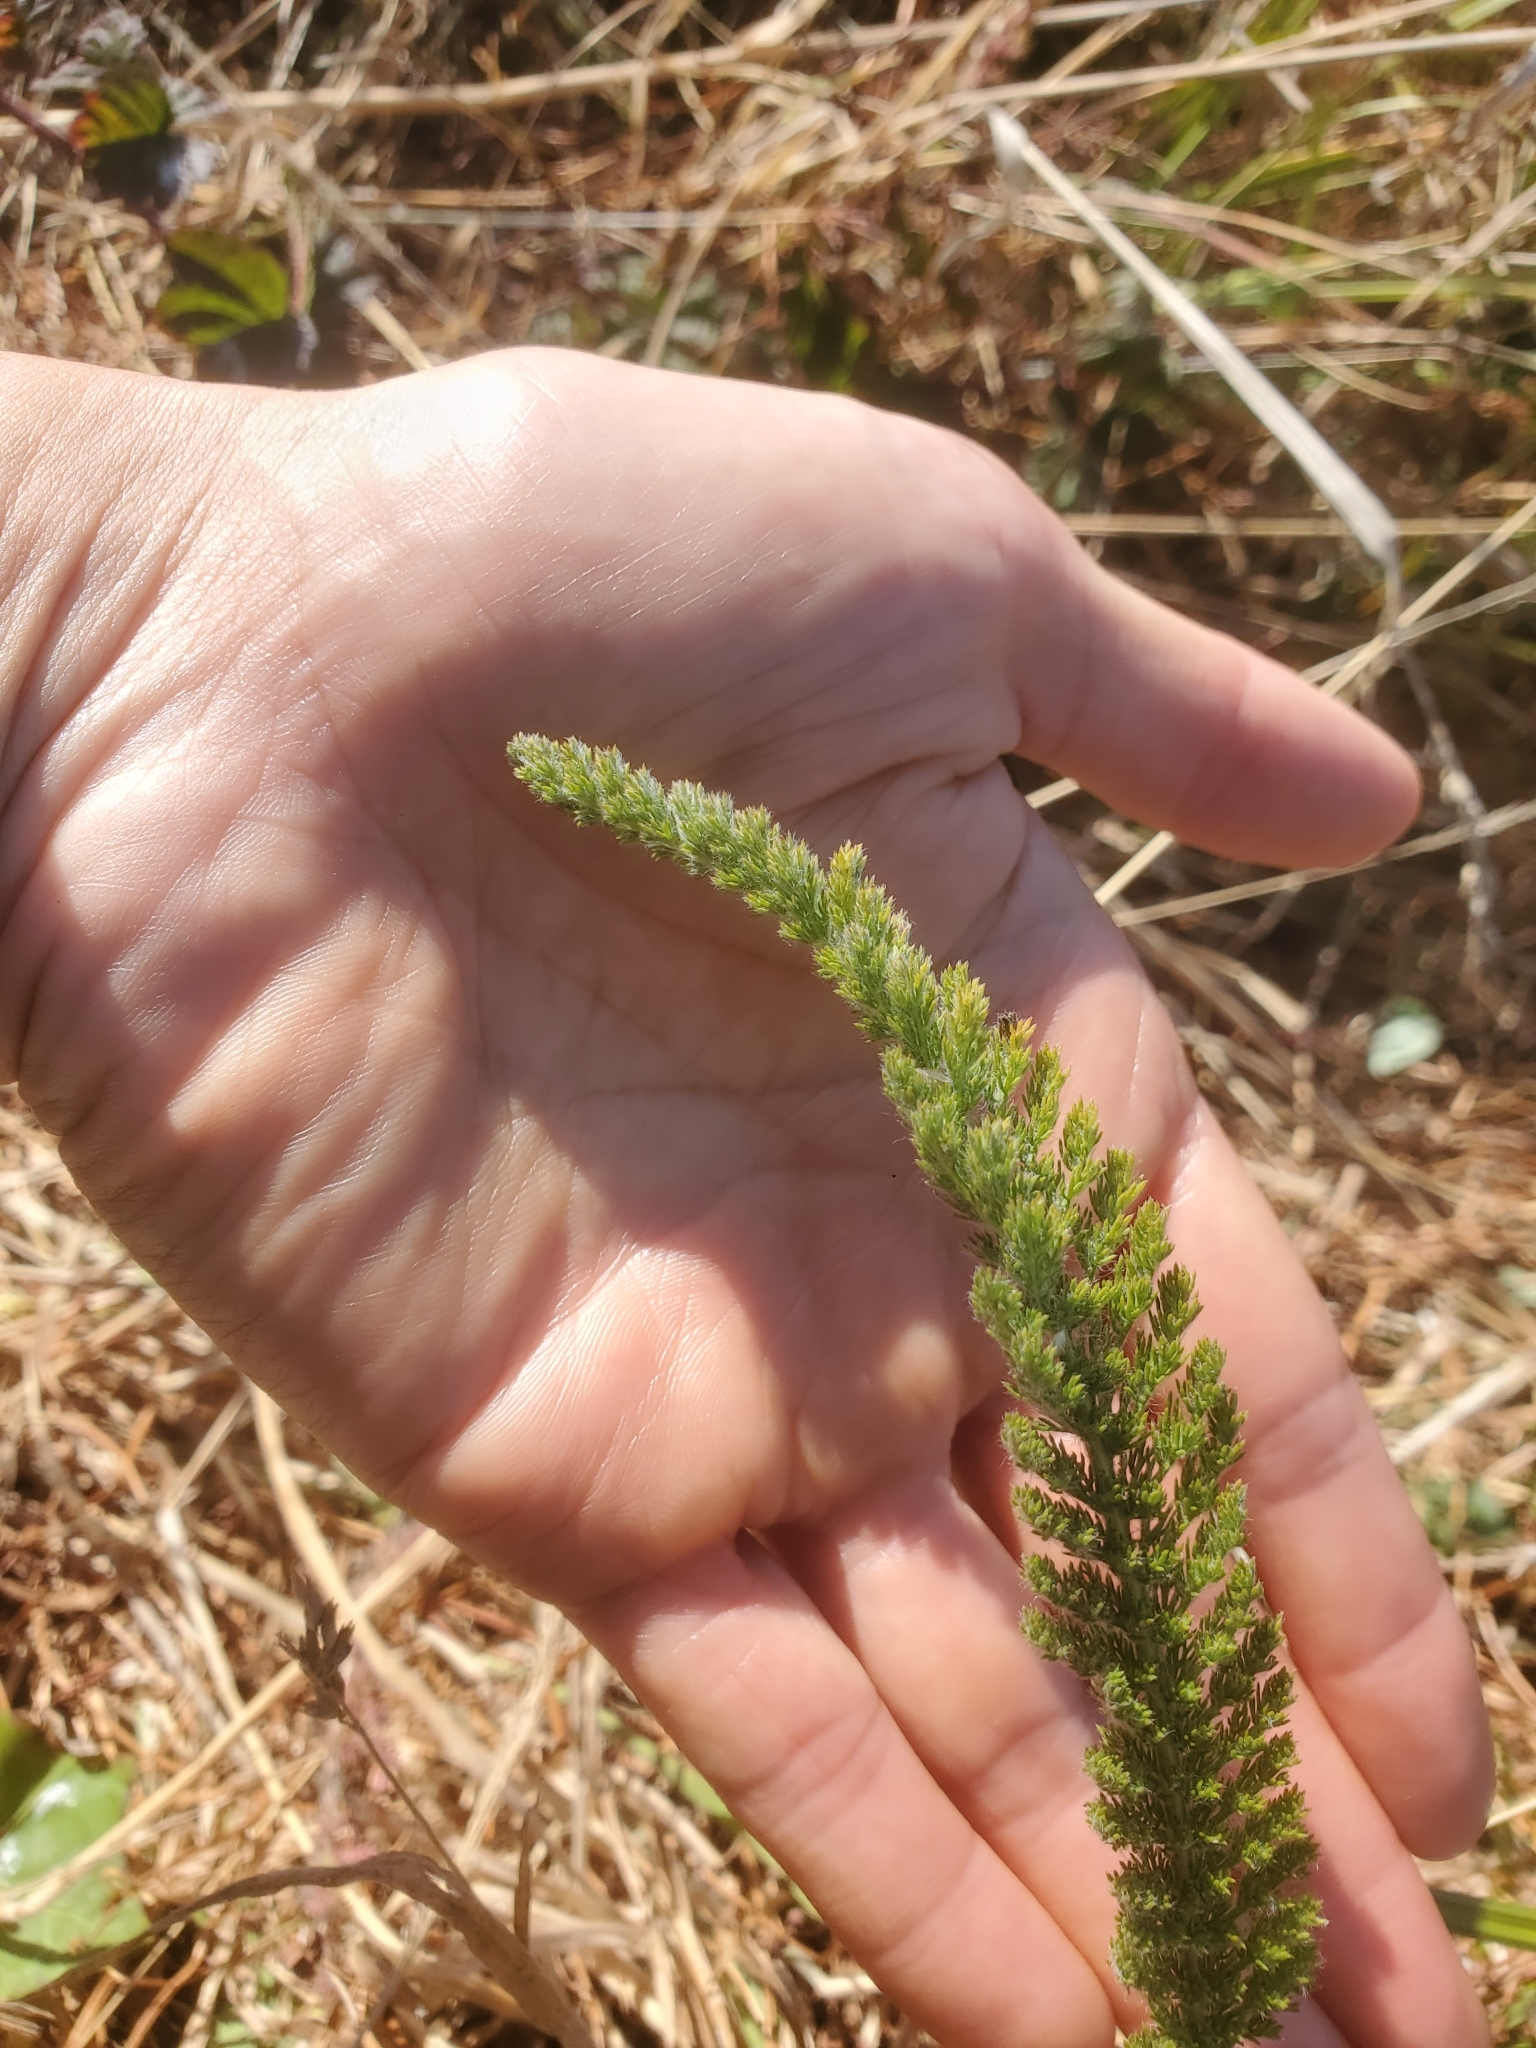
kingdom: Plantae
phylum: Tracheophyta
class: Magnoliopsida
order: Asterales
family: Asteraceae
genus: Achillea
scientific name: Achillea millefolium
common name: Yarrow
